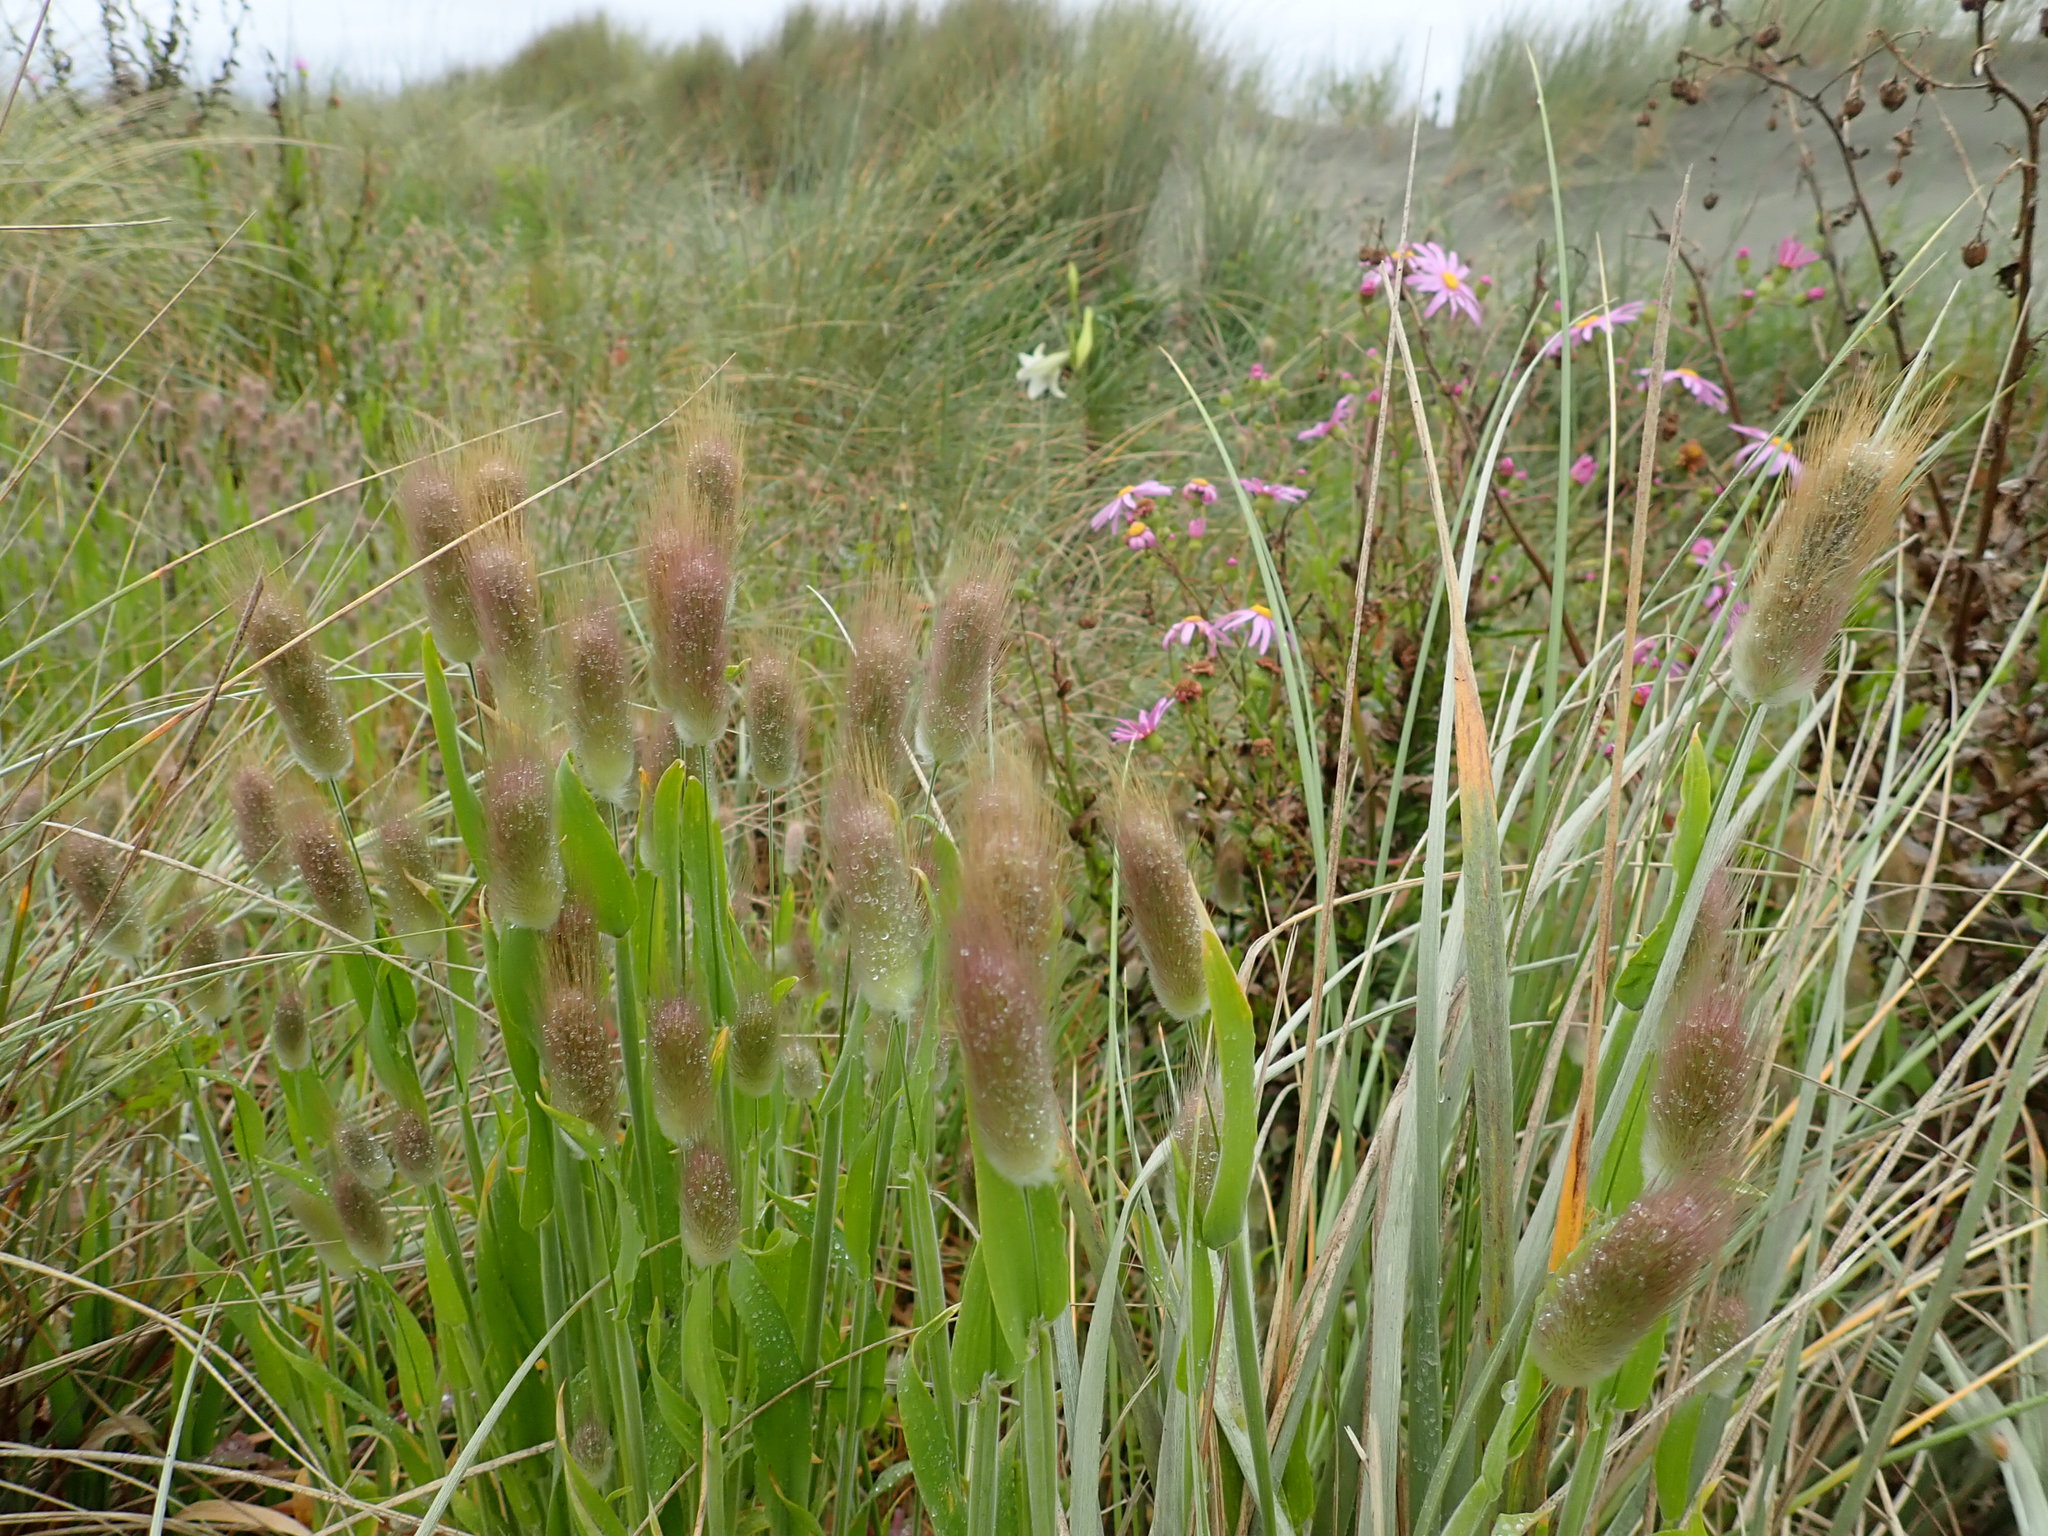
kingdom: Plantae
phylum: Tracheophyta
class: Liliopsida
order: Poales
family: Poaceae
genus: Lagurus
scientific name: Lagurus ovatus
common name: Hare's-tail
